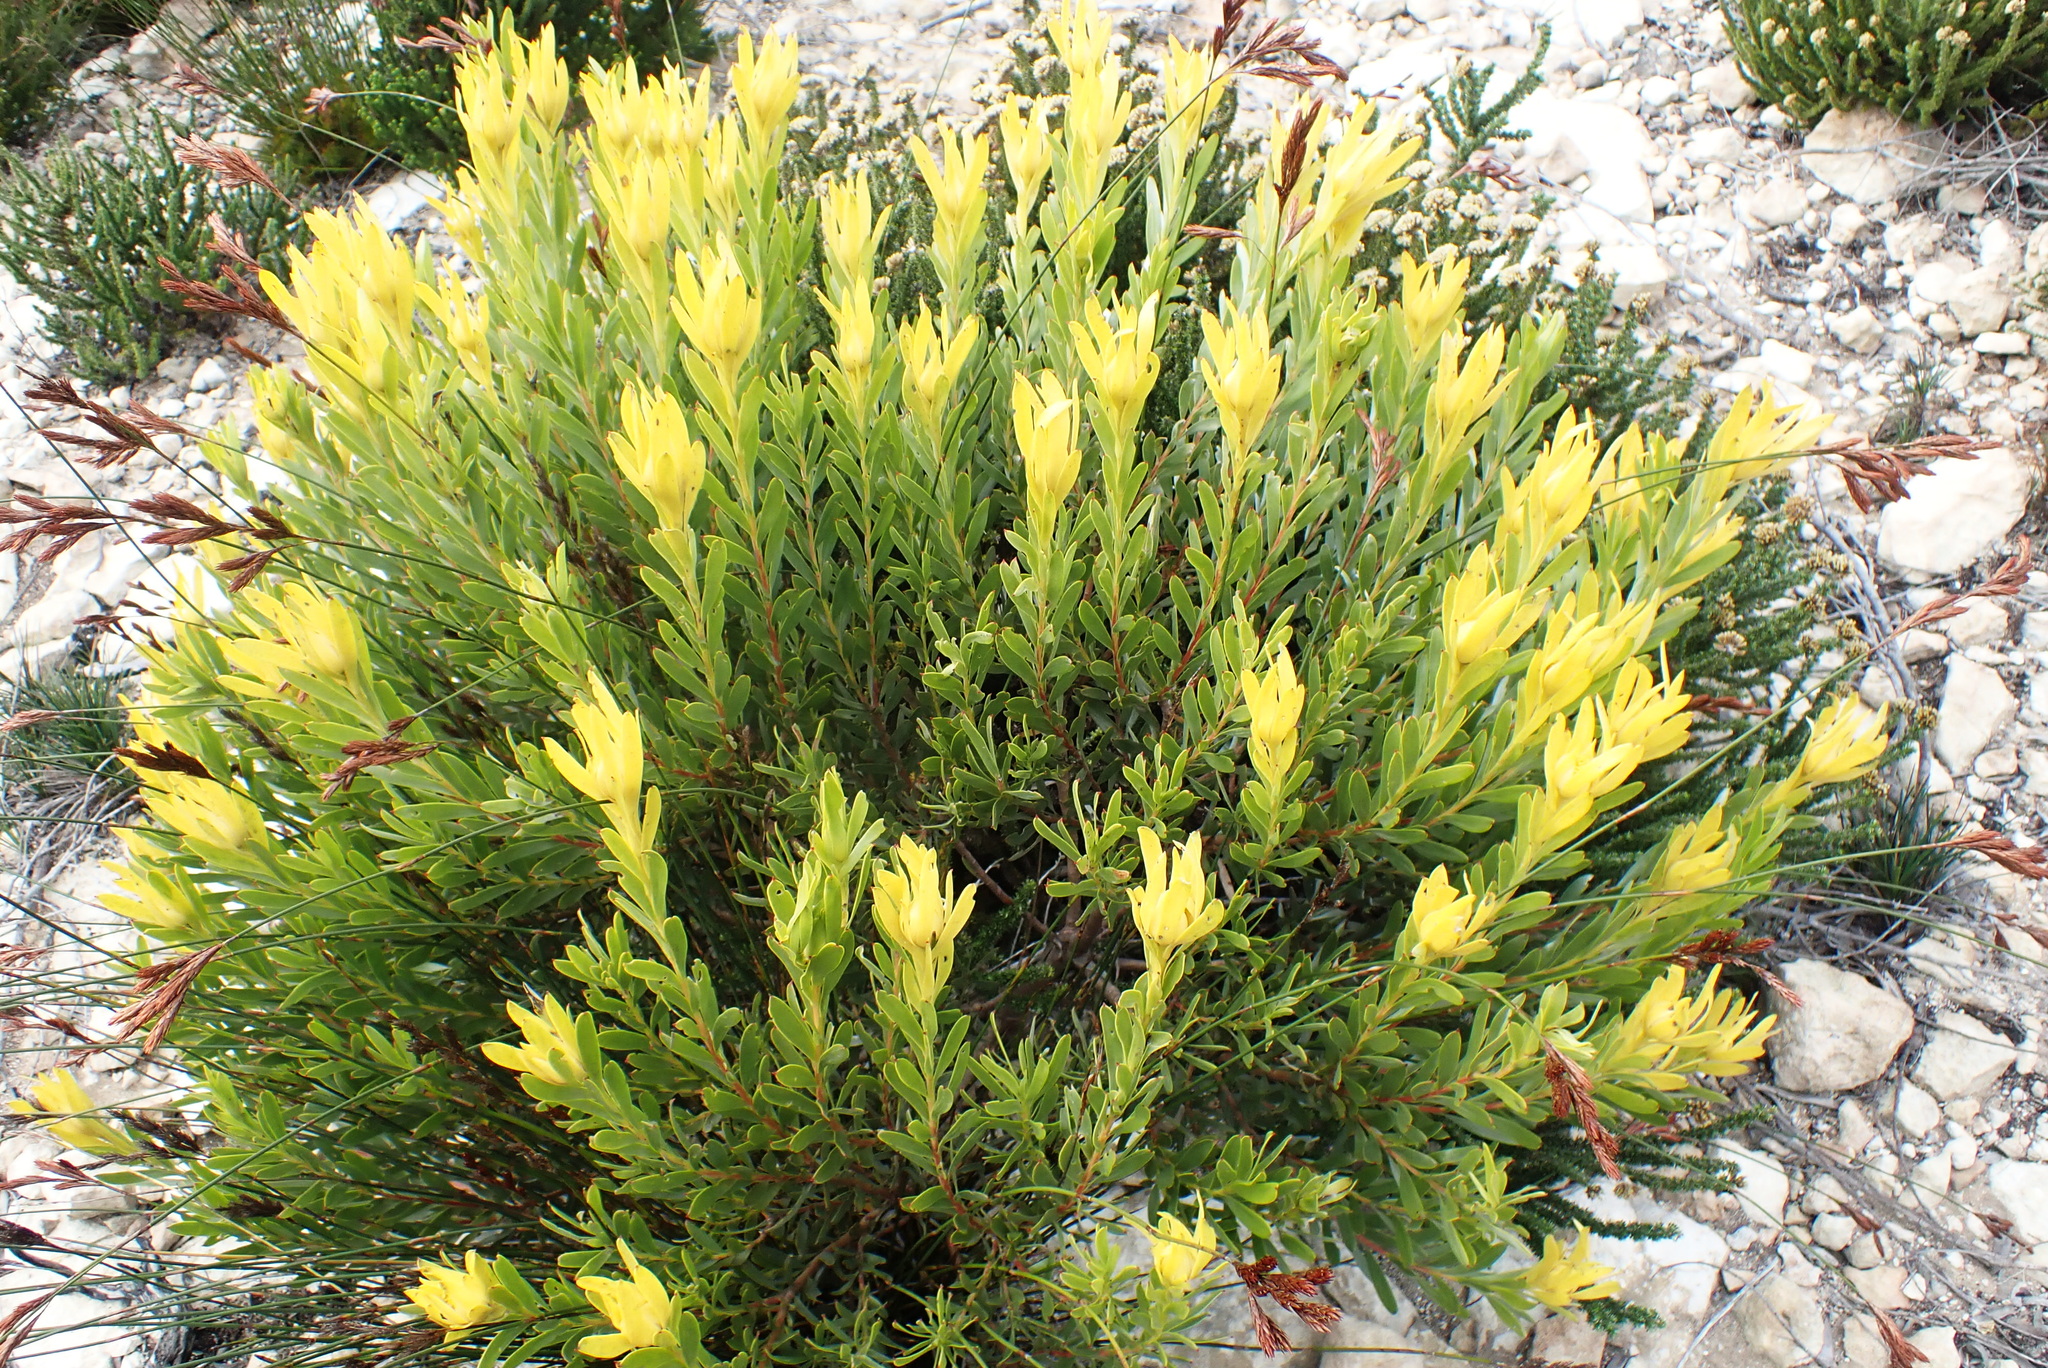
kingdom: Plantae
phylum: Tracheophyta
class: Magnoliopsida
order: Proteales
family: Proteaceae
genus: Leucadendron
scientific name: Leucadendron meridianum
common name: Limestone conebush
